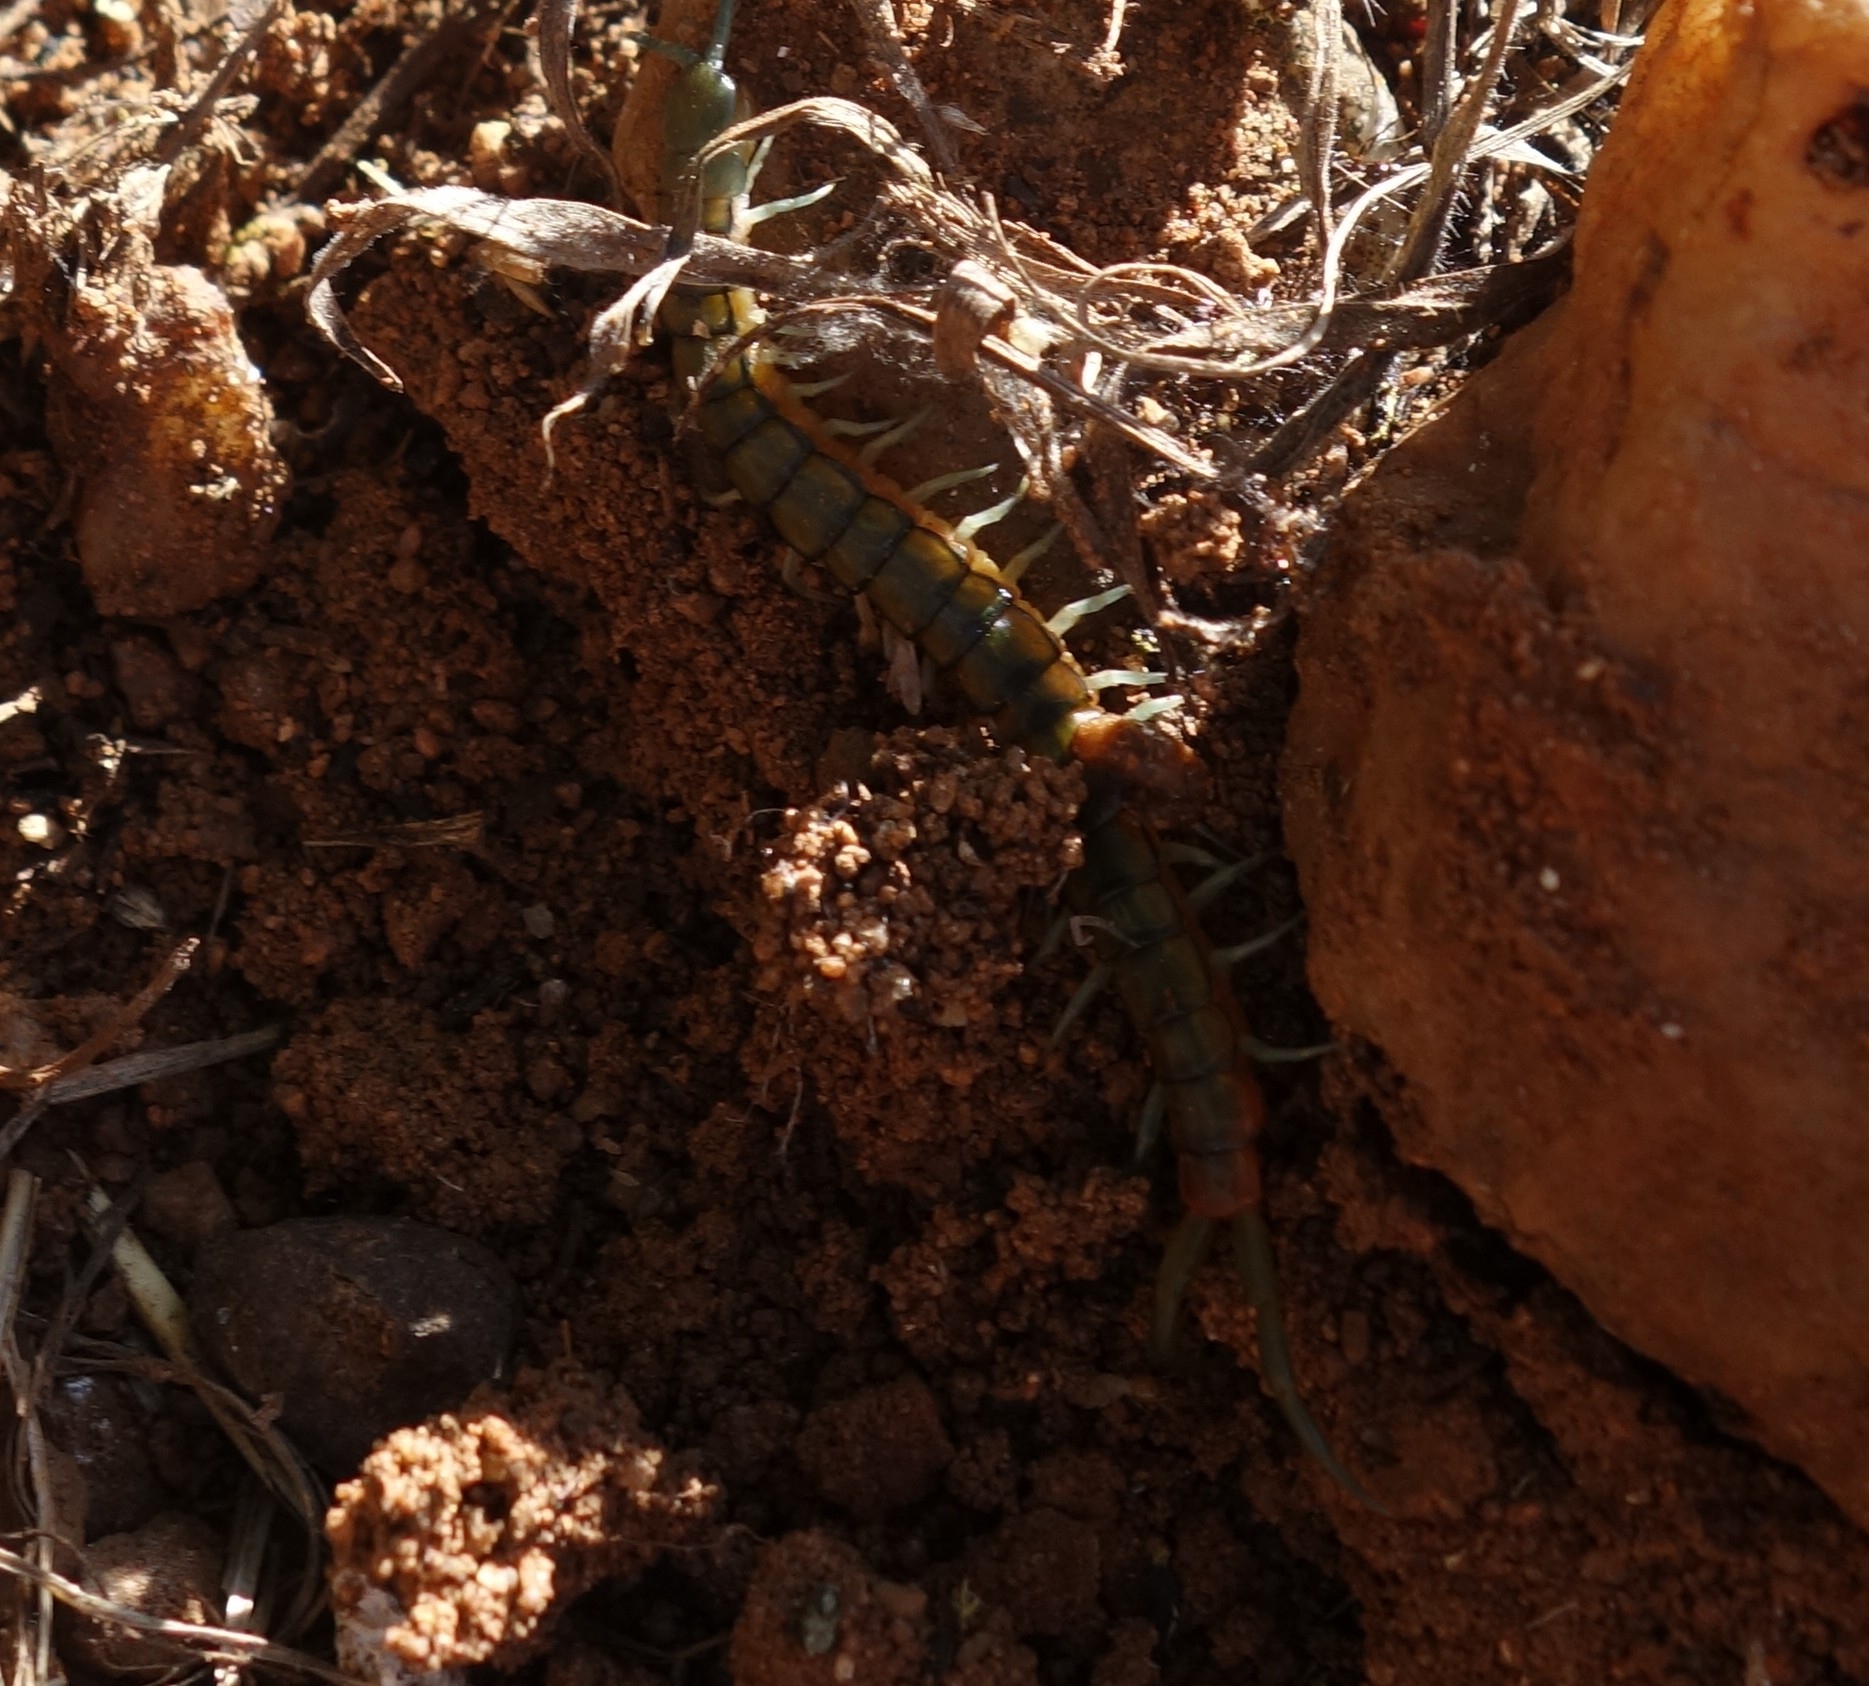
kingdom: Animalia
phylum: Arthropoda
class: Chilopoda
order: Scolopendromorpha
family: Scolopendridae
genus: Scolopendra
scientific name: Scolopendra morsitans
